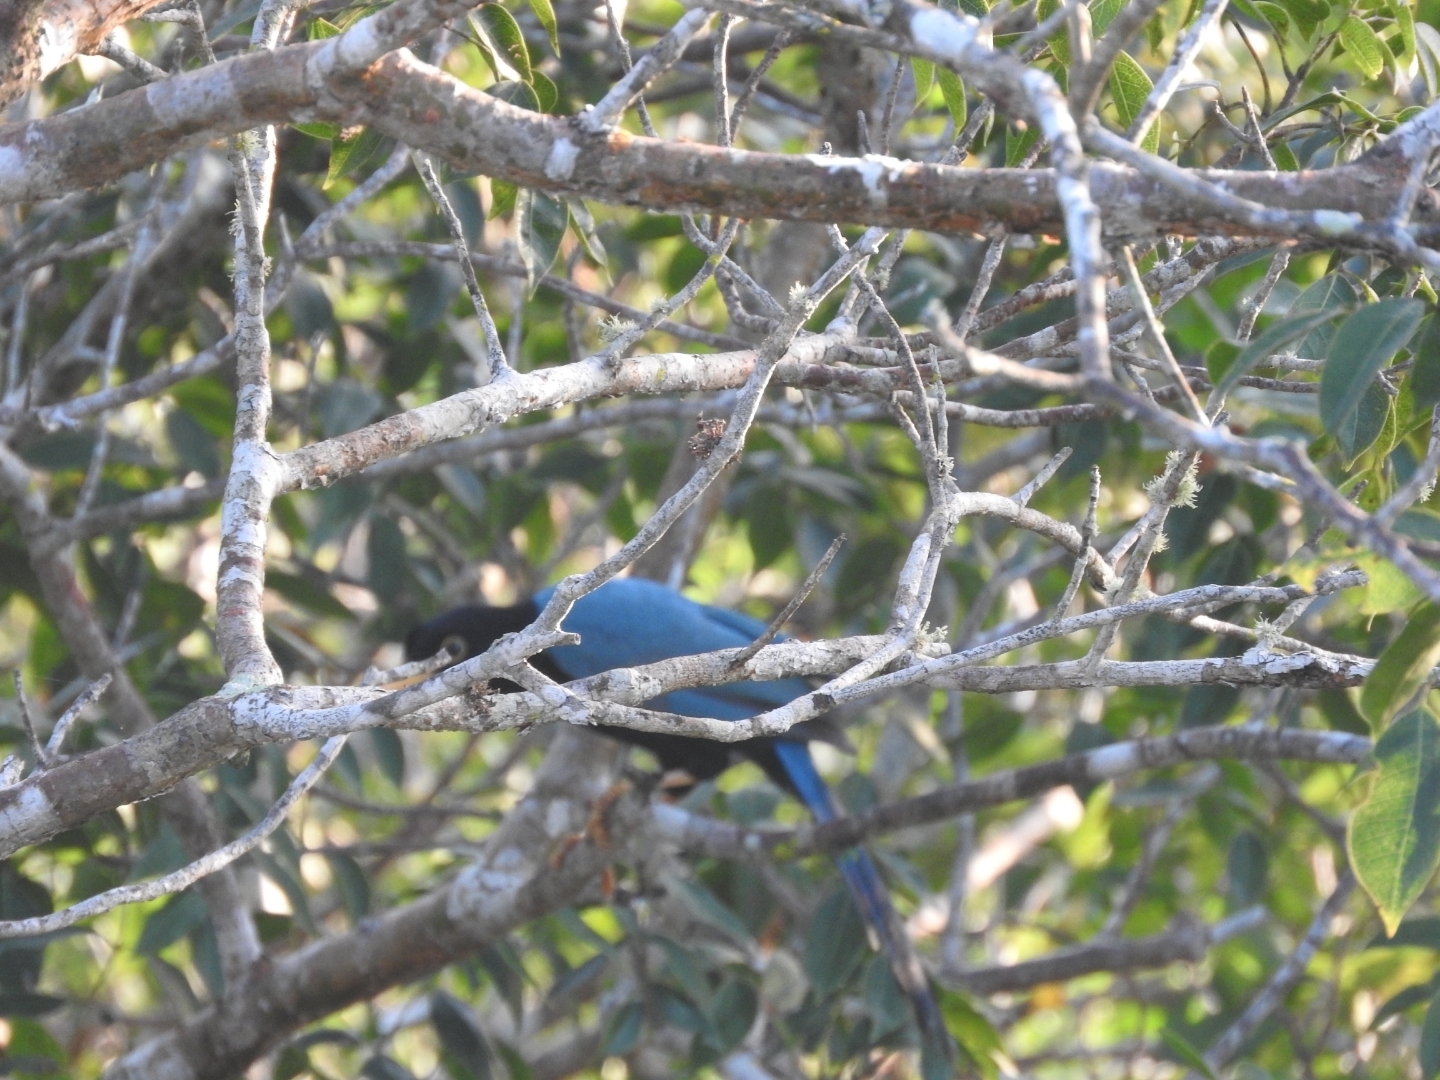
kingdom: Animalia
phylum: Chordata
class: Aves
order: Passeriformes
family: Corvidae
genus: Cyanocorax
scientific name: Cyanocorax yucatanicus
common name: Yucatan jay
